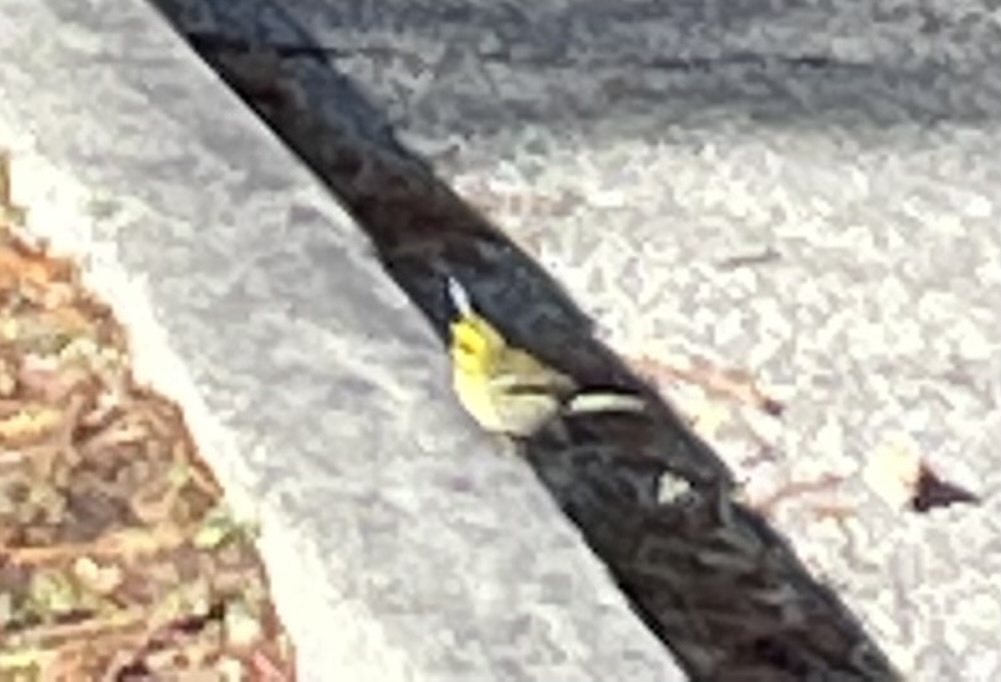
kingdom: Animalia
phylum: Chordata
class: Aves
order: Passeriformes
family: Parulidae
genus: Setophaga
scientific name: Setophaga townsendi
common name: Townsend's warbler
